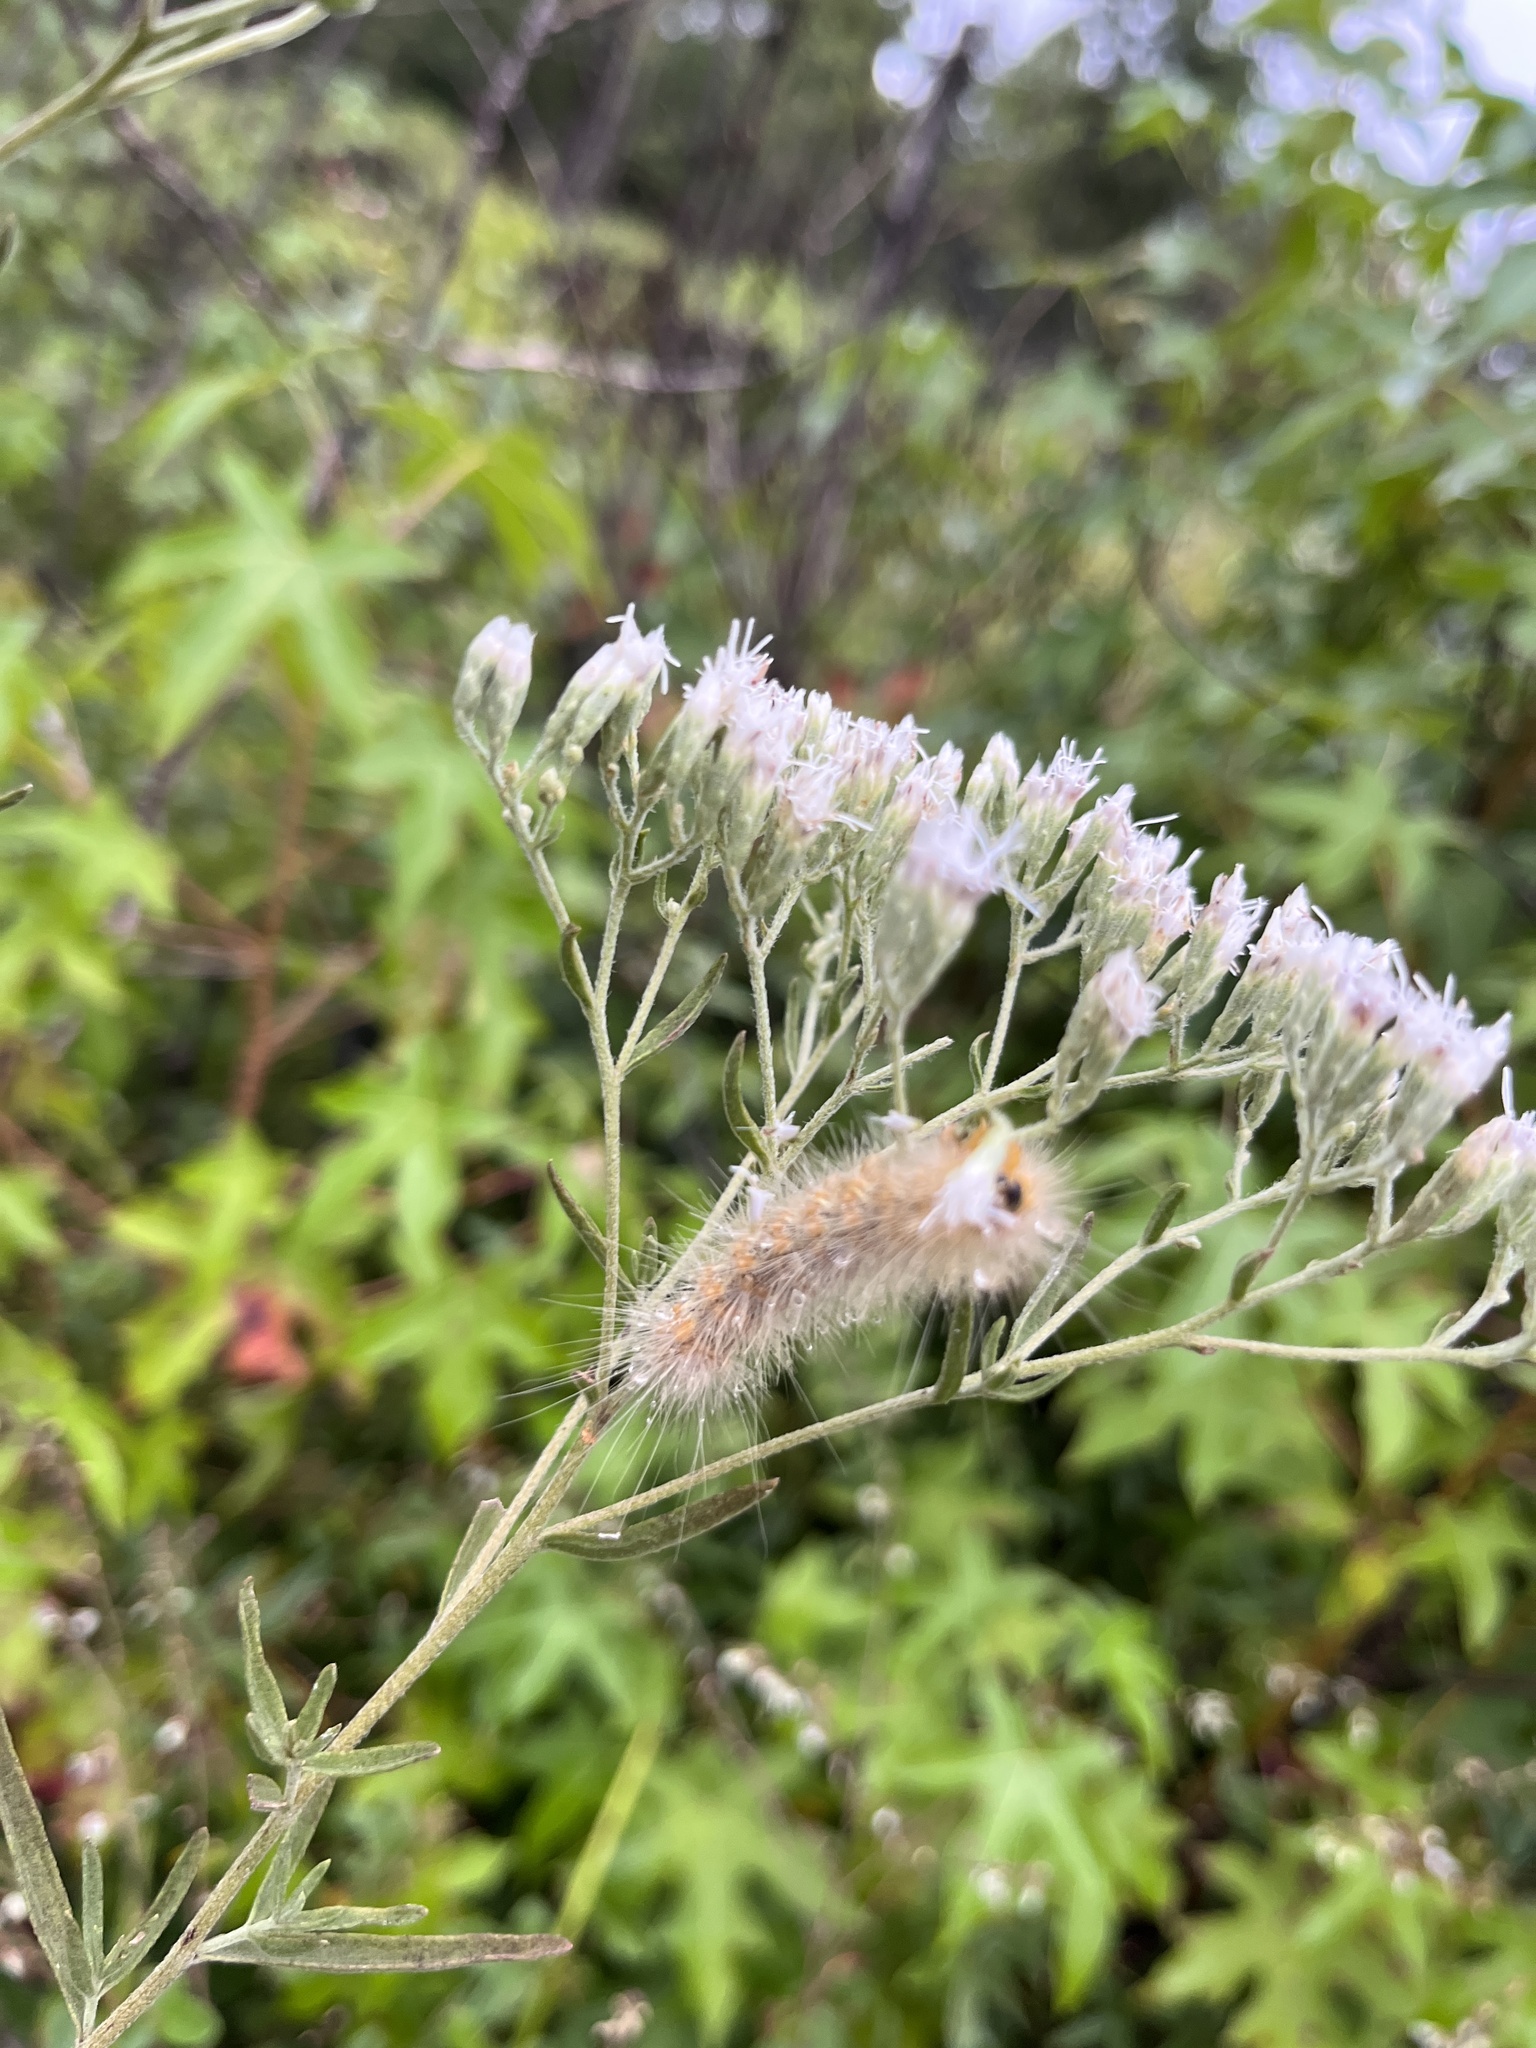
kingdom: Animalia
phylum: Arthropoda
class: Insecta
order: Lepidoptera
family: Erebidae
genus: Estigmene
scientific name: Estigmene acrea
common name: Salt marsh moth
